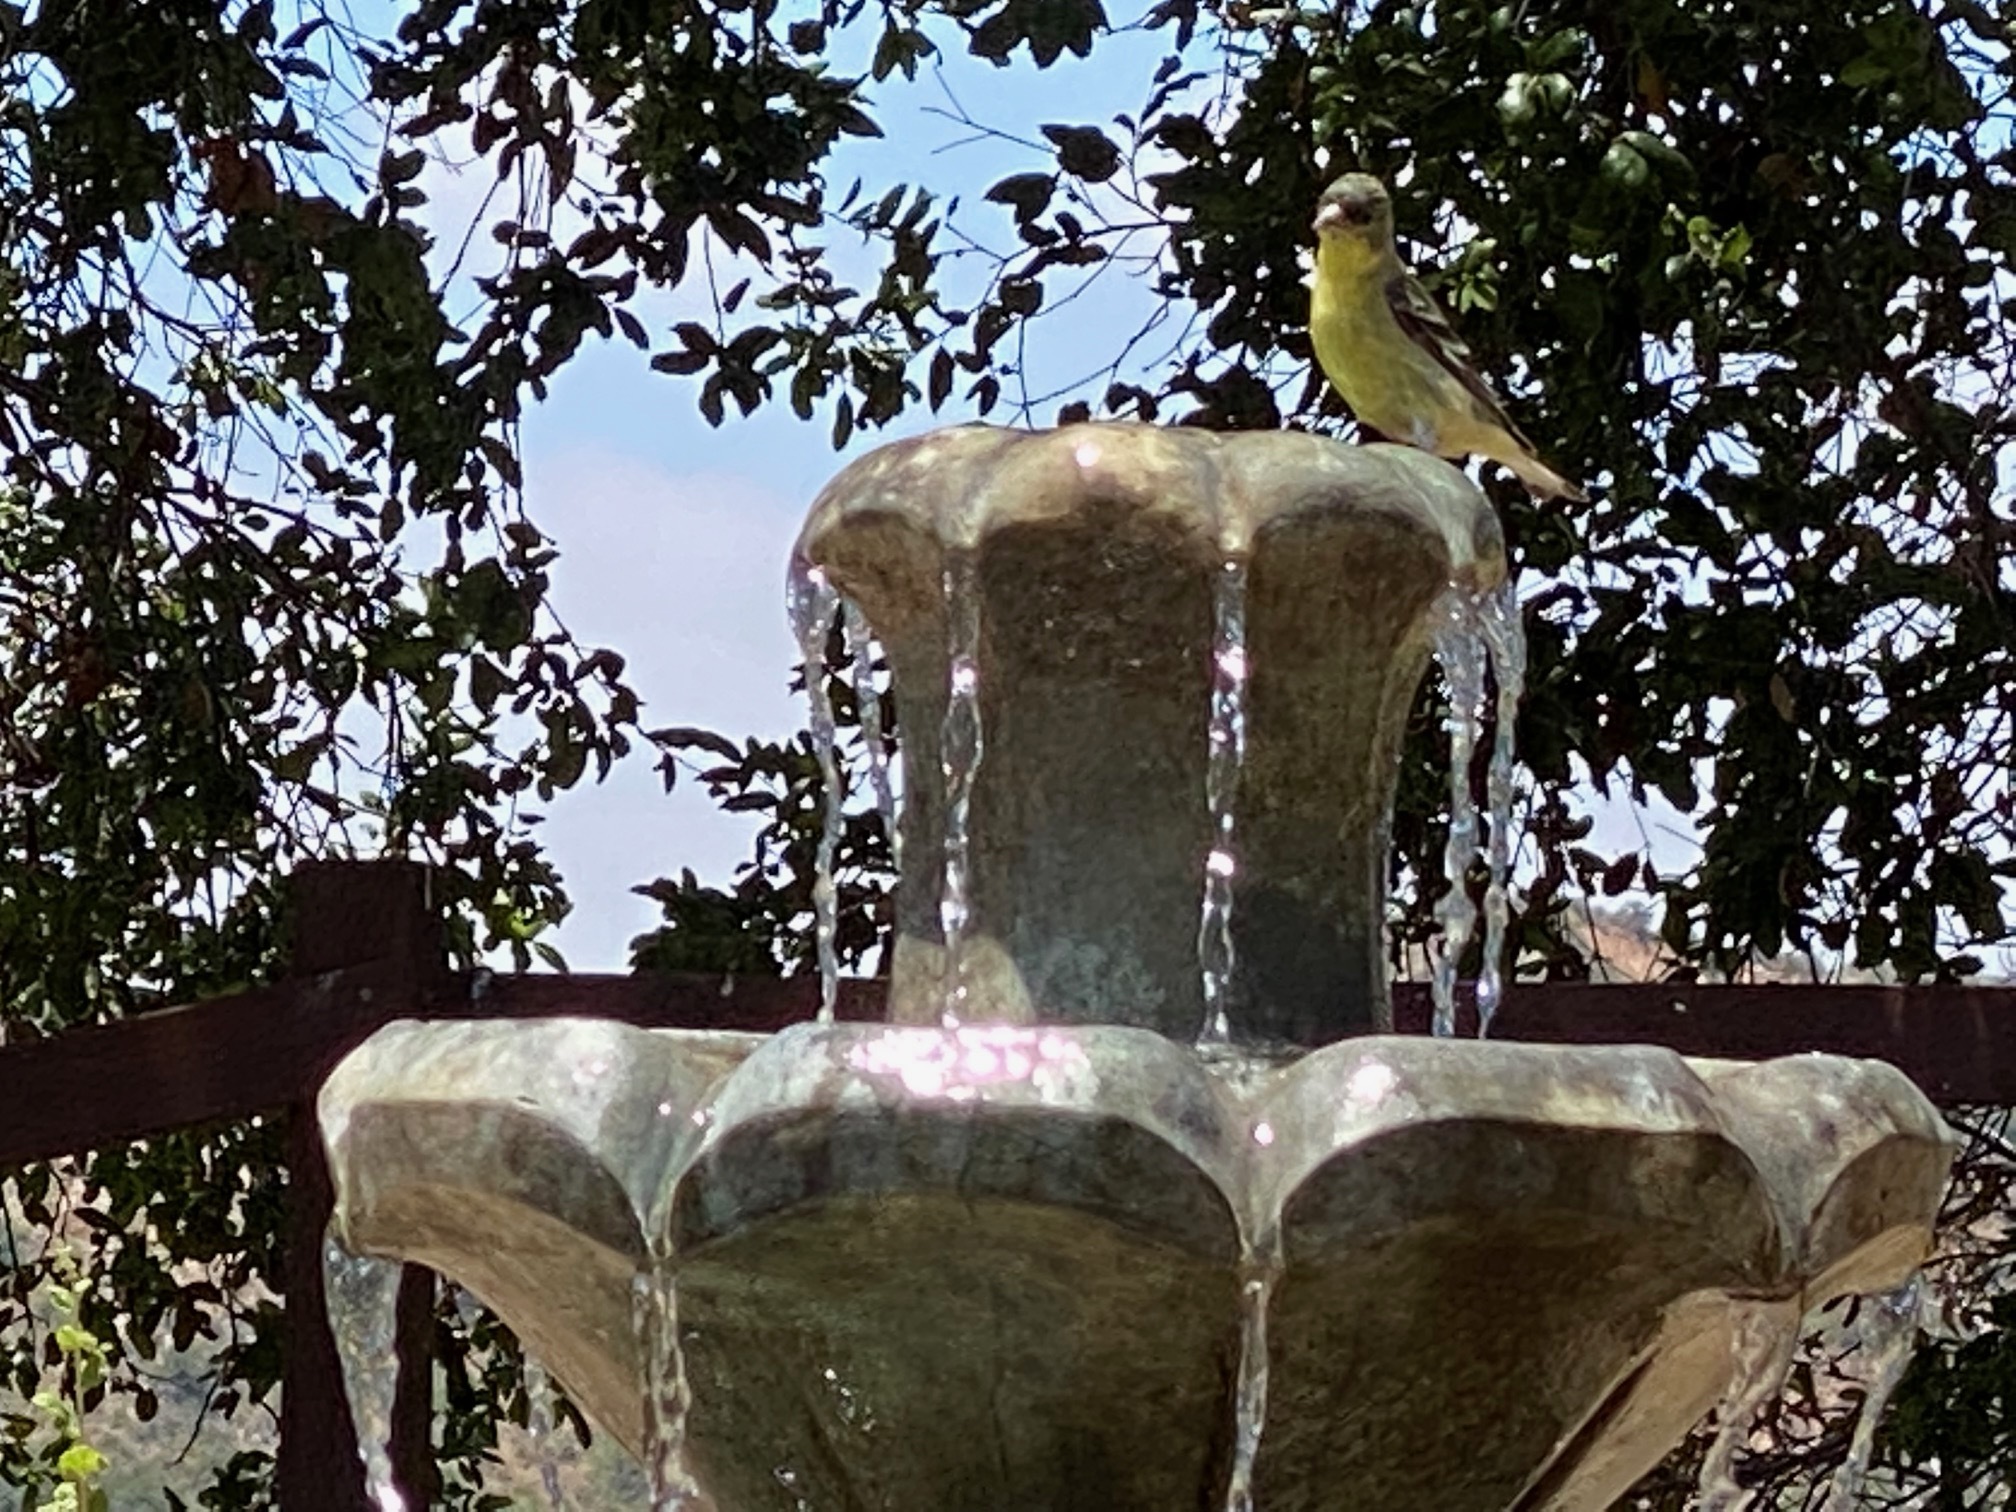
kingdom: Animalia
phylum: Chordata
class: Aves
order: Passeriformes
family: Fringillidae
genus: Spinus
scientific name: Spinus psaltria
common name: Lesser goldfinch
